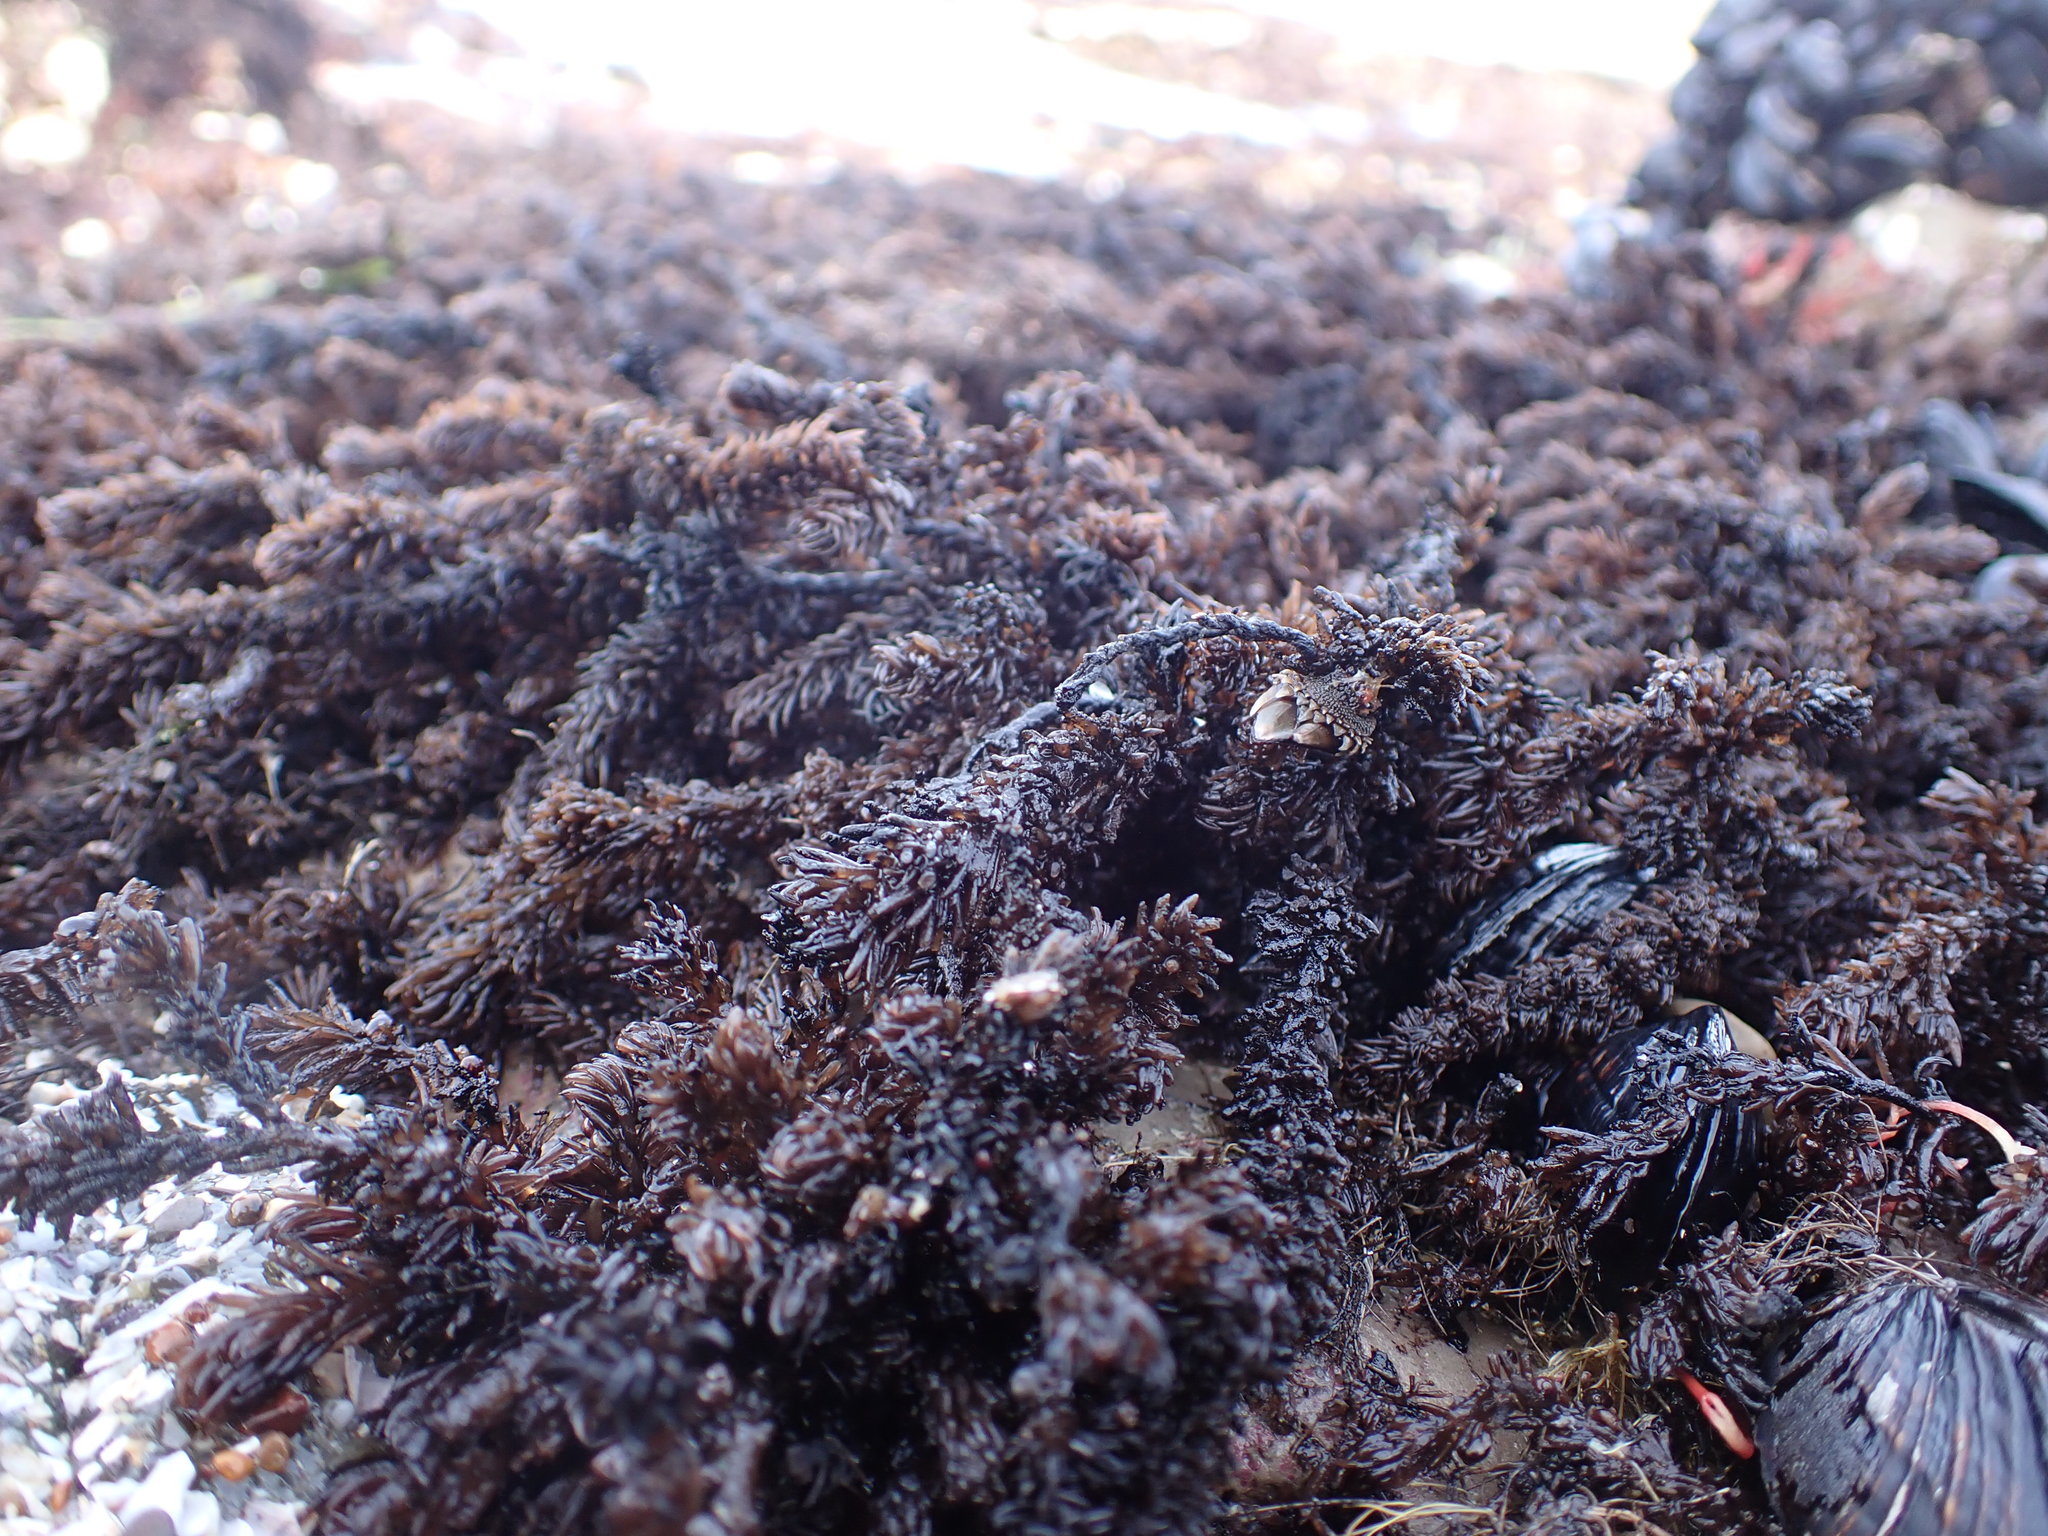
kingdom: Plantae
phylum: Rhodophyta
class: Florideophyceae
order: Ceramiales
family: Rhodomelaceae
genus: Neorhodomela
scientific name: Neorhodomela larix
